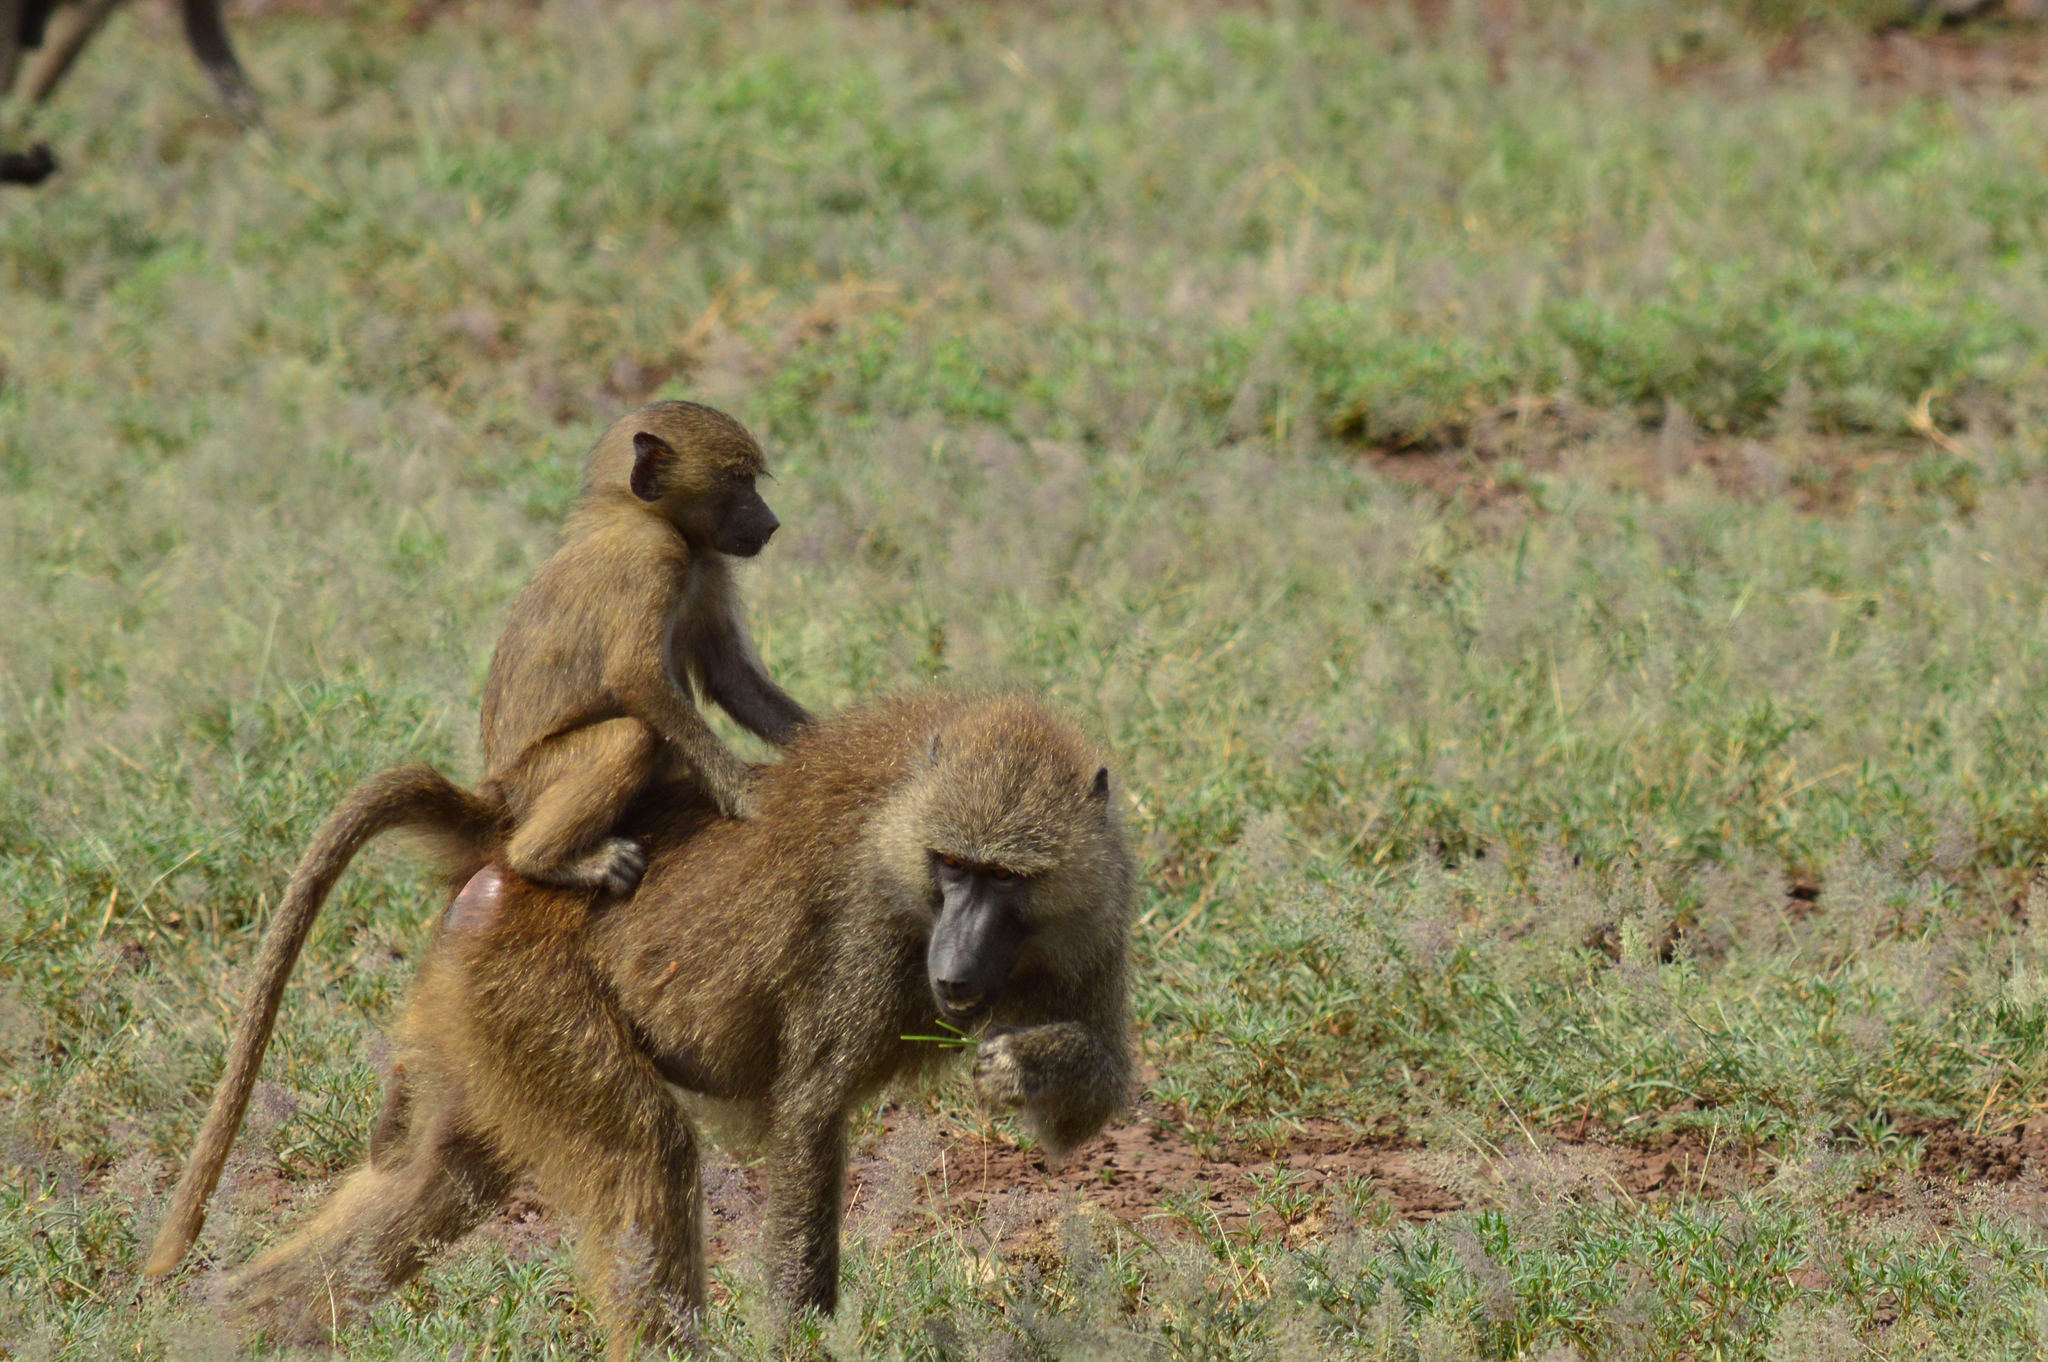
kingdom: Animalia
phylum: Chordata
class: Mammalia
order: Primates
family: Cercopithecidae
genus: Papio
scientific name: Papio anubis
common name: Olive baboon
